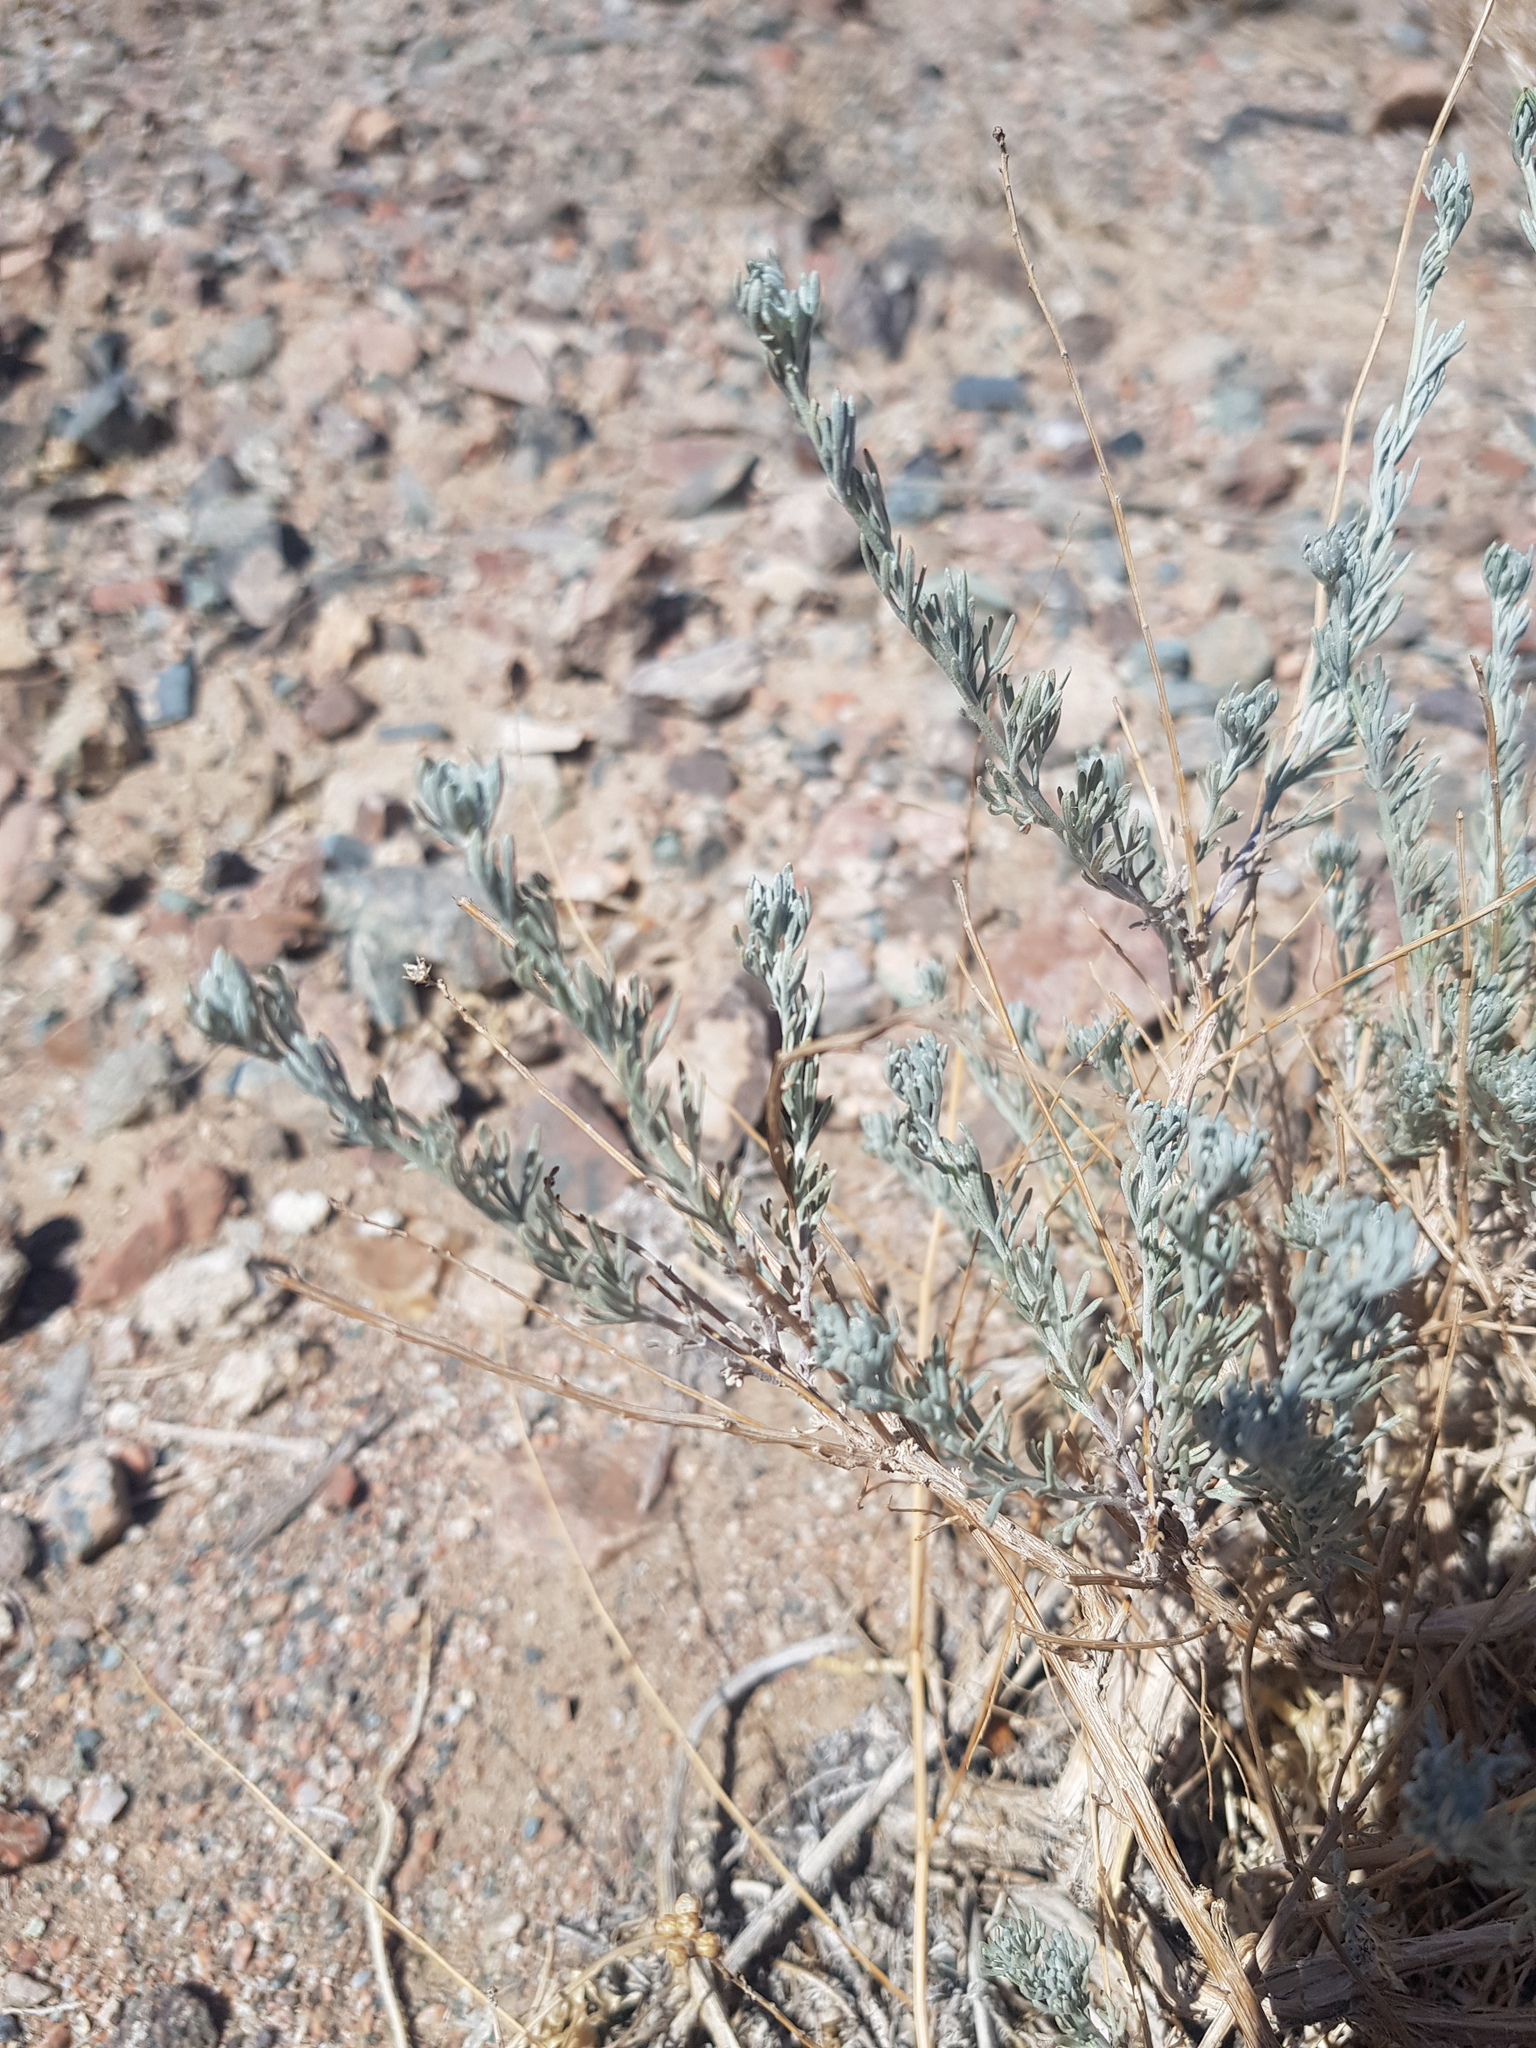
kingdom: Plantae
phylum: Tracheophyta
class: Magnoliopsida
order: Asterales
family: Asteraceae
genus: Artemisia
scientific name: Artemisia xerophytica
